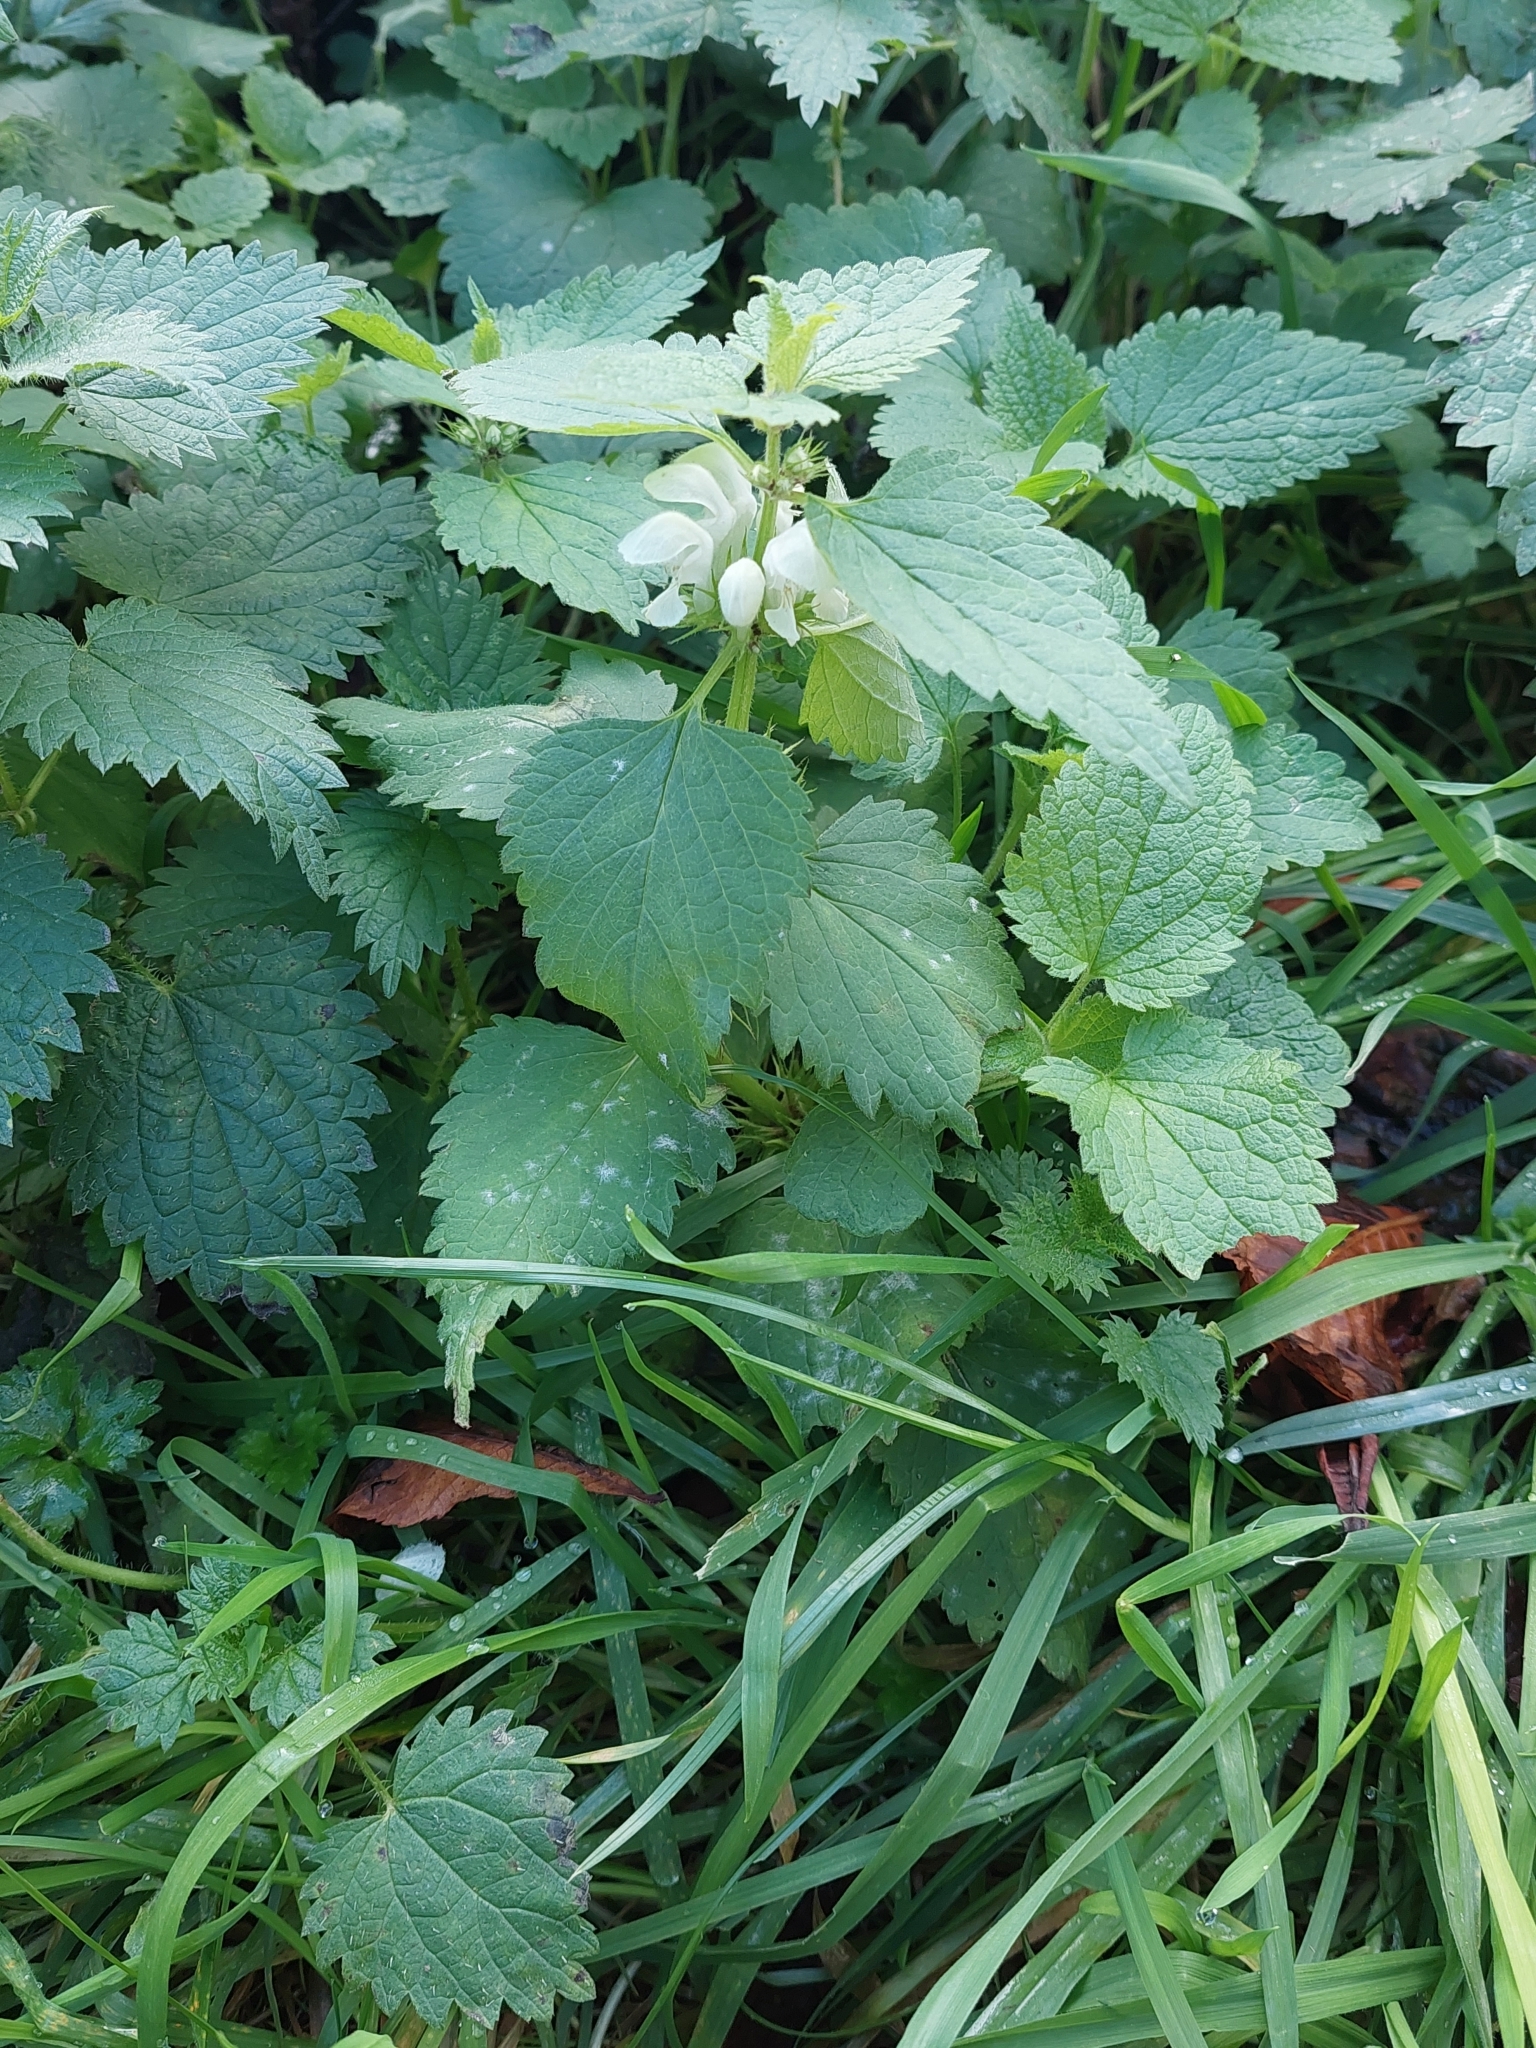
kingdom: Plantae
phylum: Tracheophyta
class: Magnoliopsida
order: Lamiales
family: Lamiaceae
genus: Lamium
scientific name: Lamium album
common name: White dead-nettle
